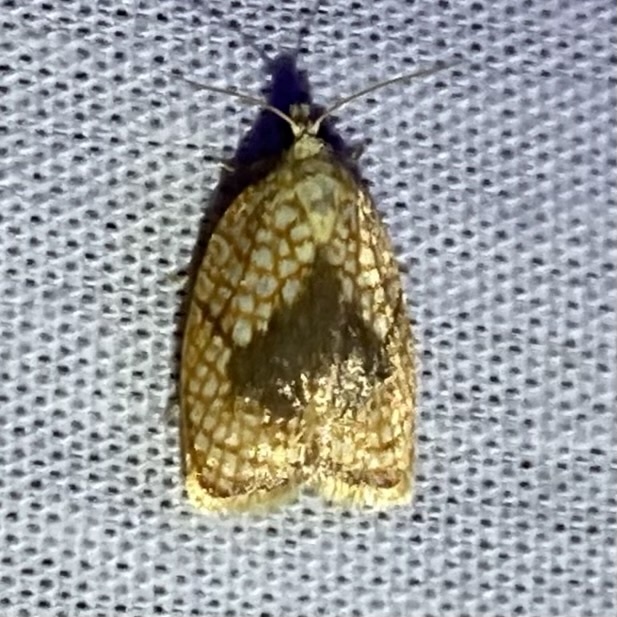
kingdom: Animalia
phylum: Arthropoda
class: Insecta
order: Lepidoptera
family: Tortricidae
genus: Acleris
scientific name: Acleris forsskaleana
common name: Maple button
